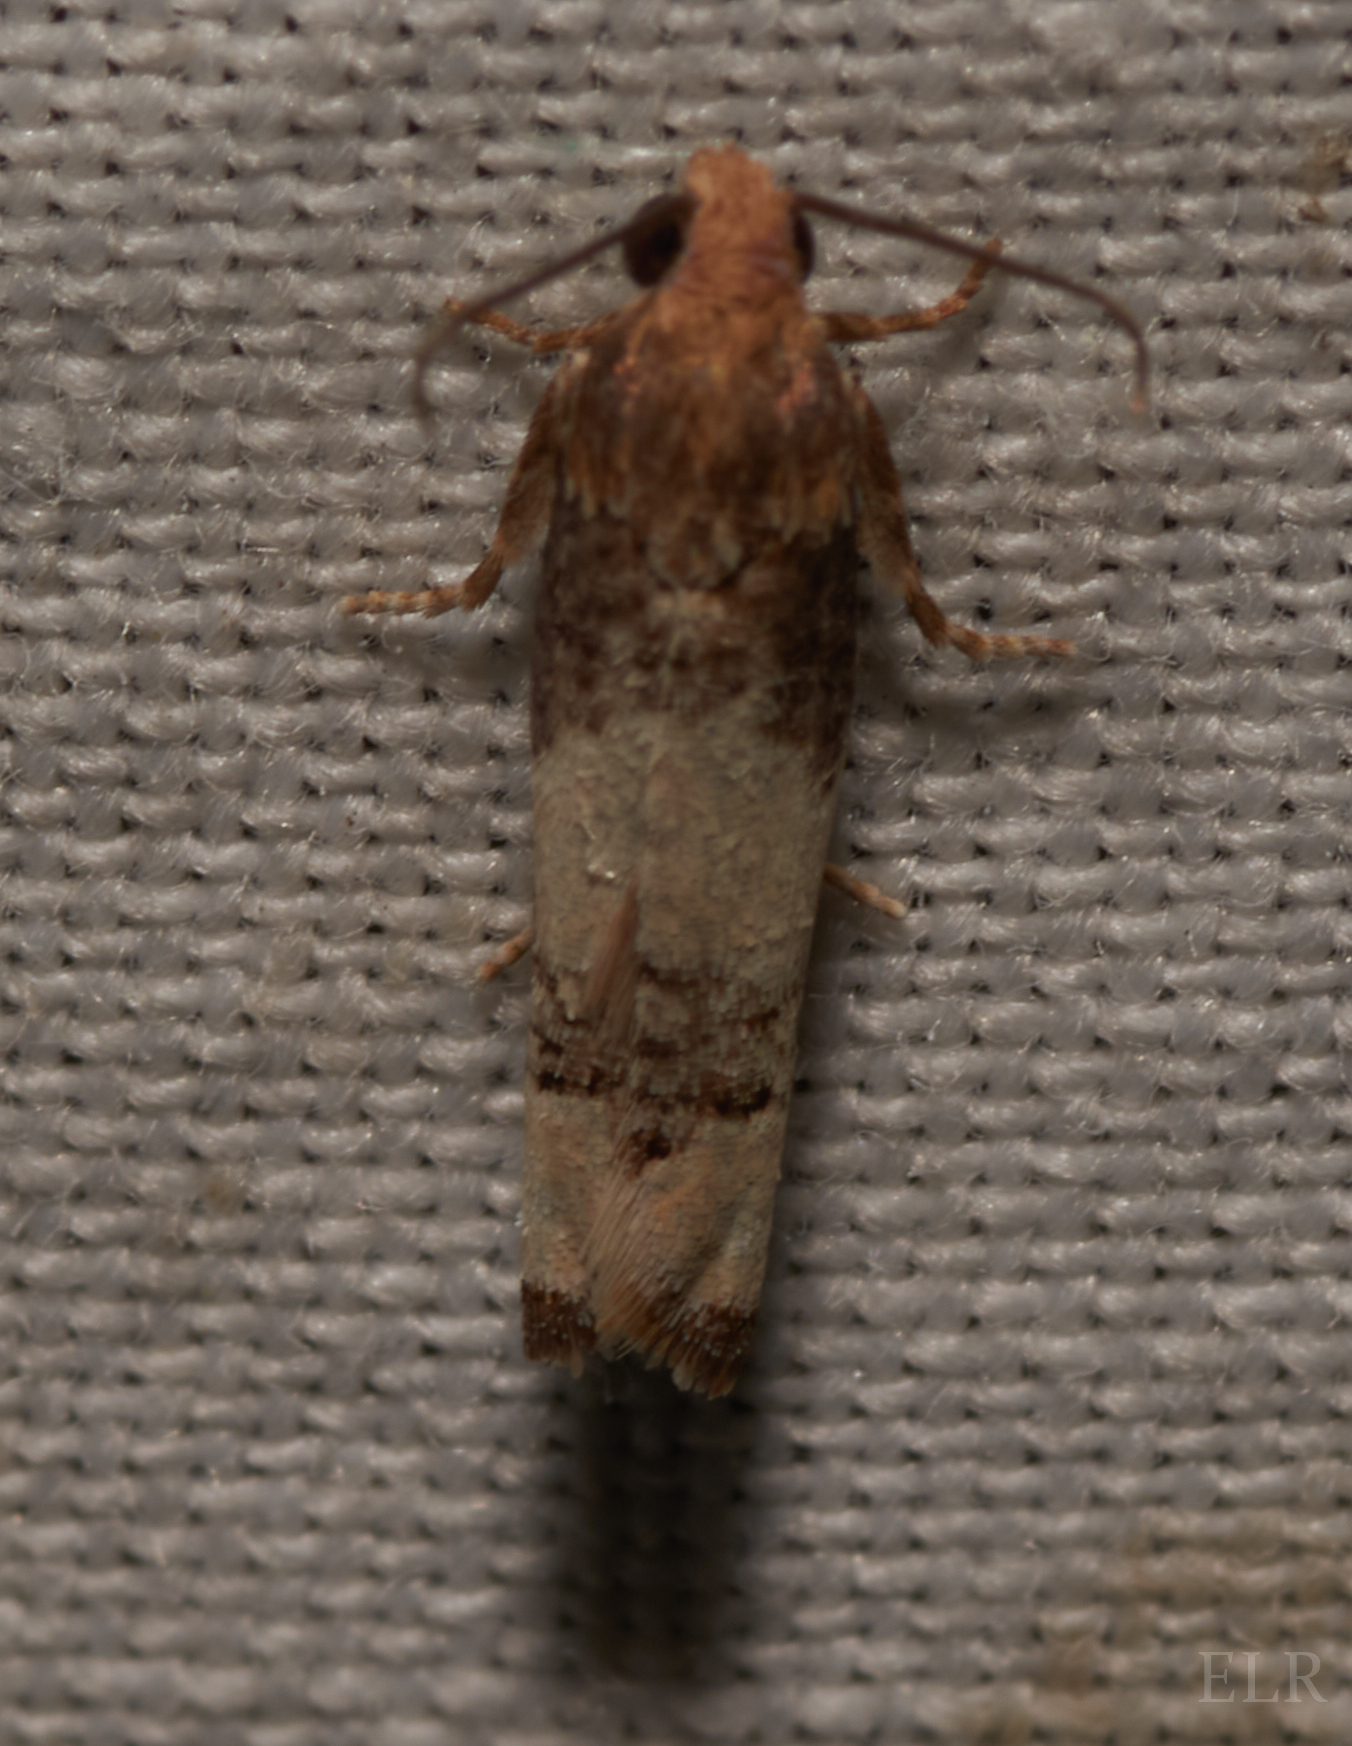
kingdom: Animalia
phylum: Arthropoda
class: Insecta
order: Lepidoptera
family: Tortricidae
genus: Epiblema
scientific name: Epiblema desertana
